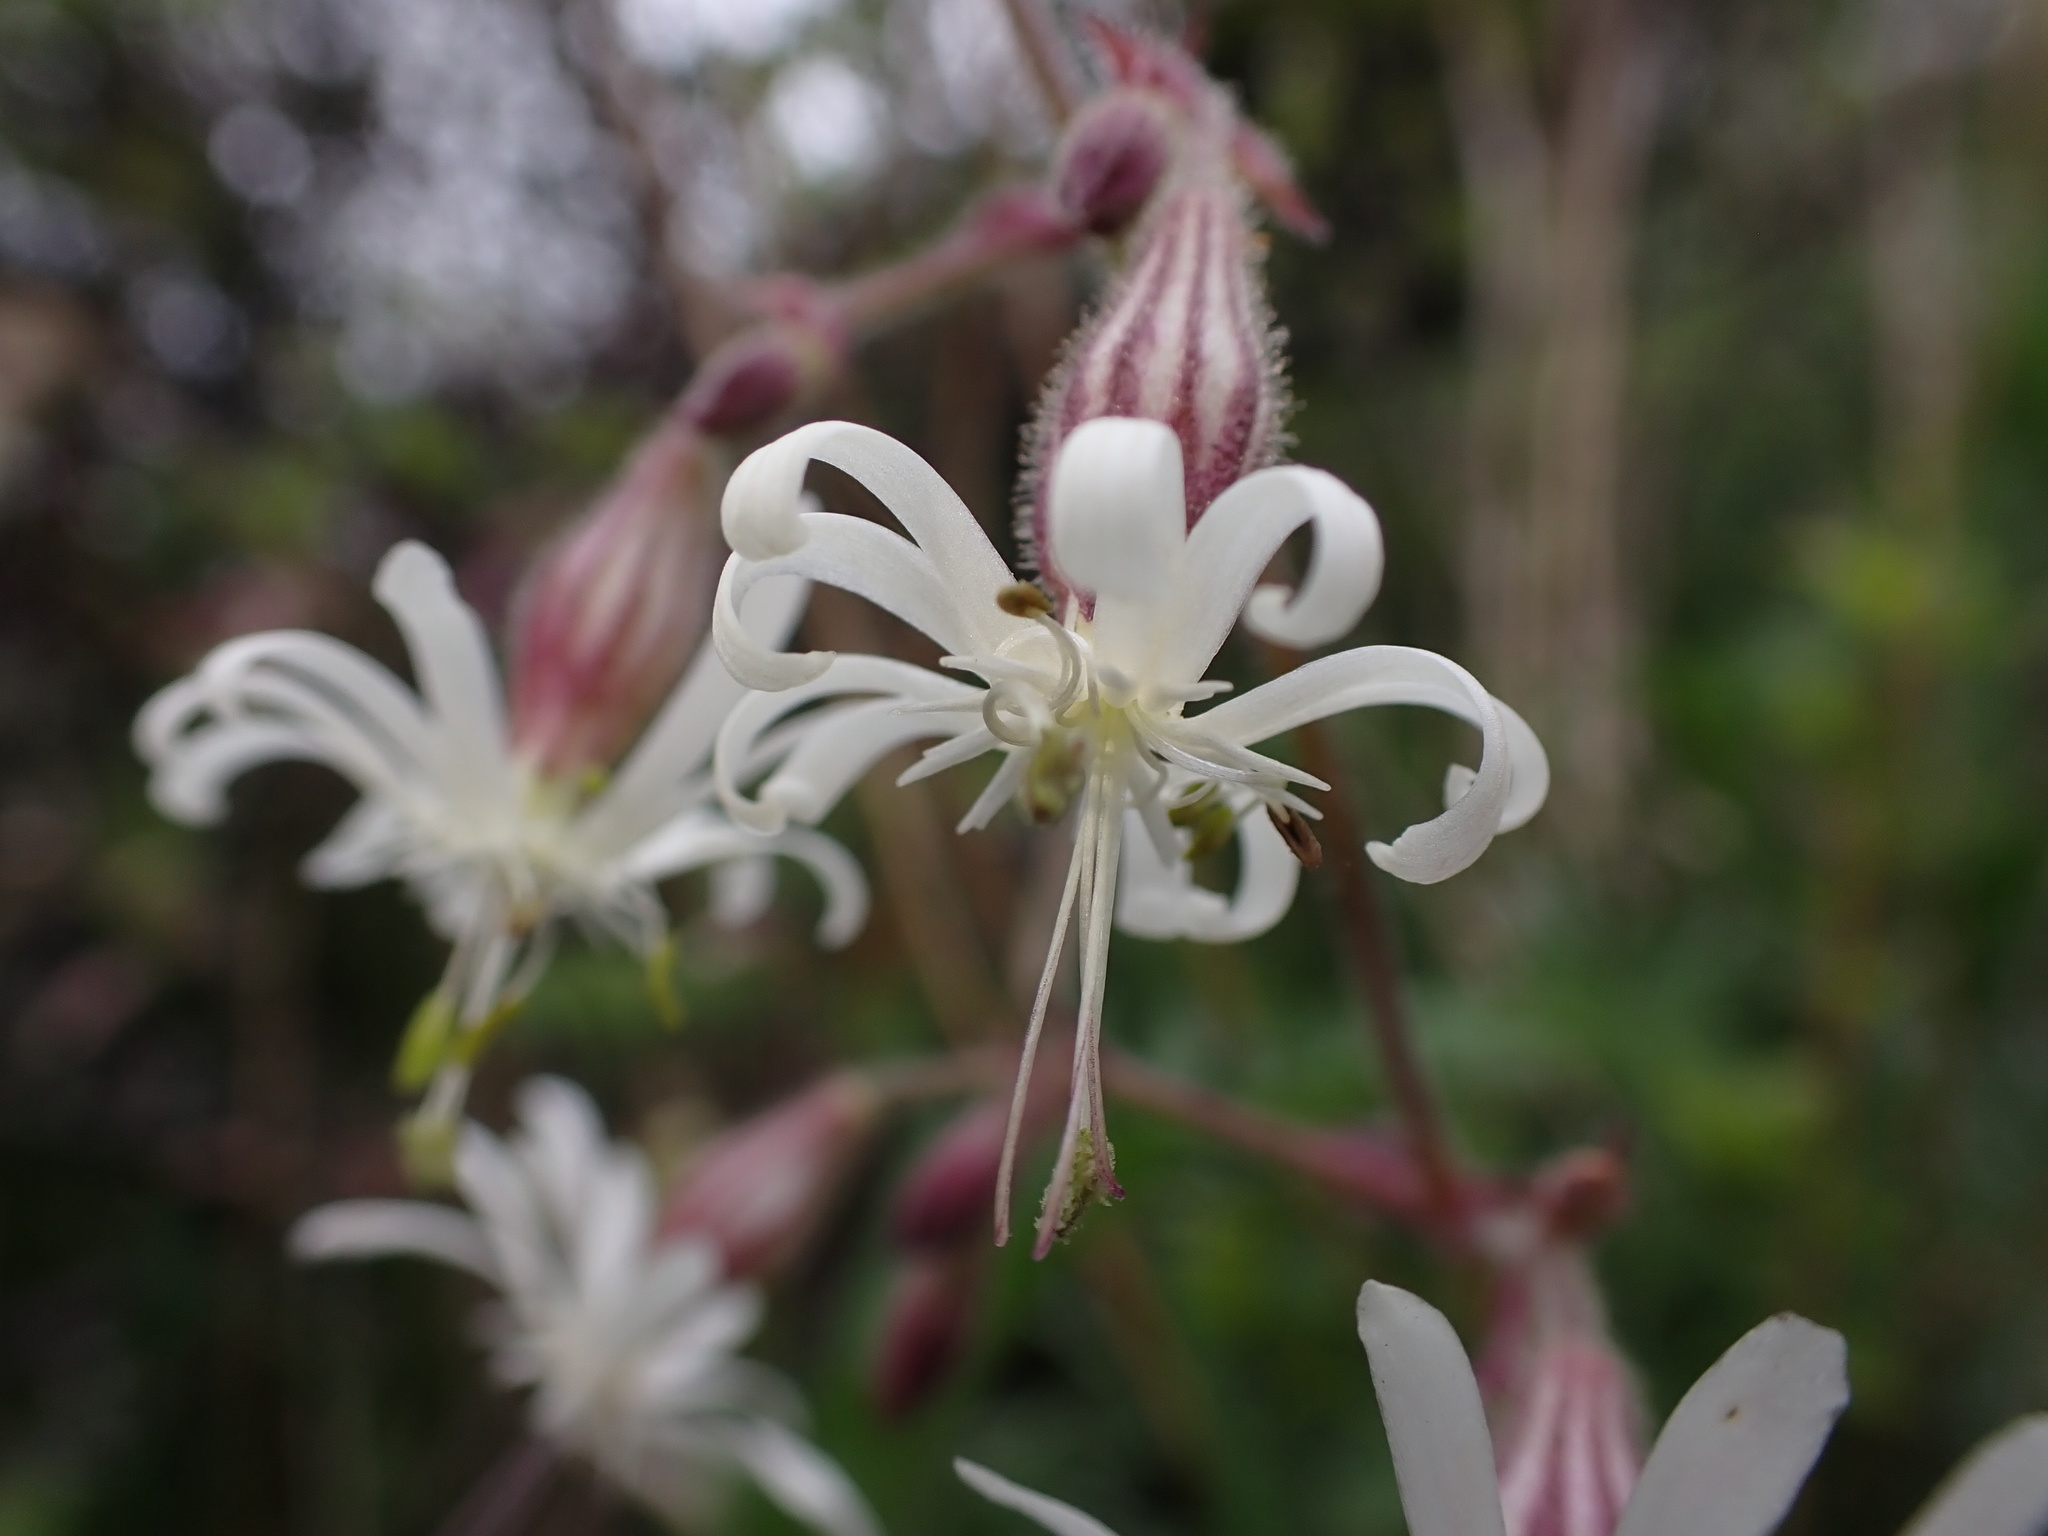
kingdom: Plantae
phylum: Tracheophyta
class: Magnoliopsida
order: Caryophyllales
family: Caryophyllaceae
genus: Silene
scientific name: Silene nutans
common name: Nottingham catchfly
